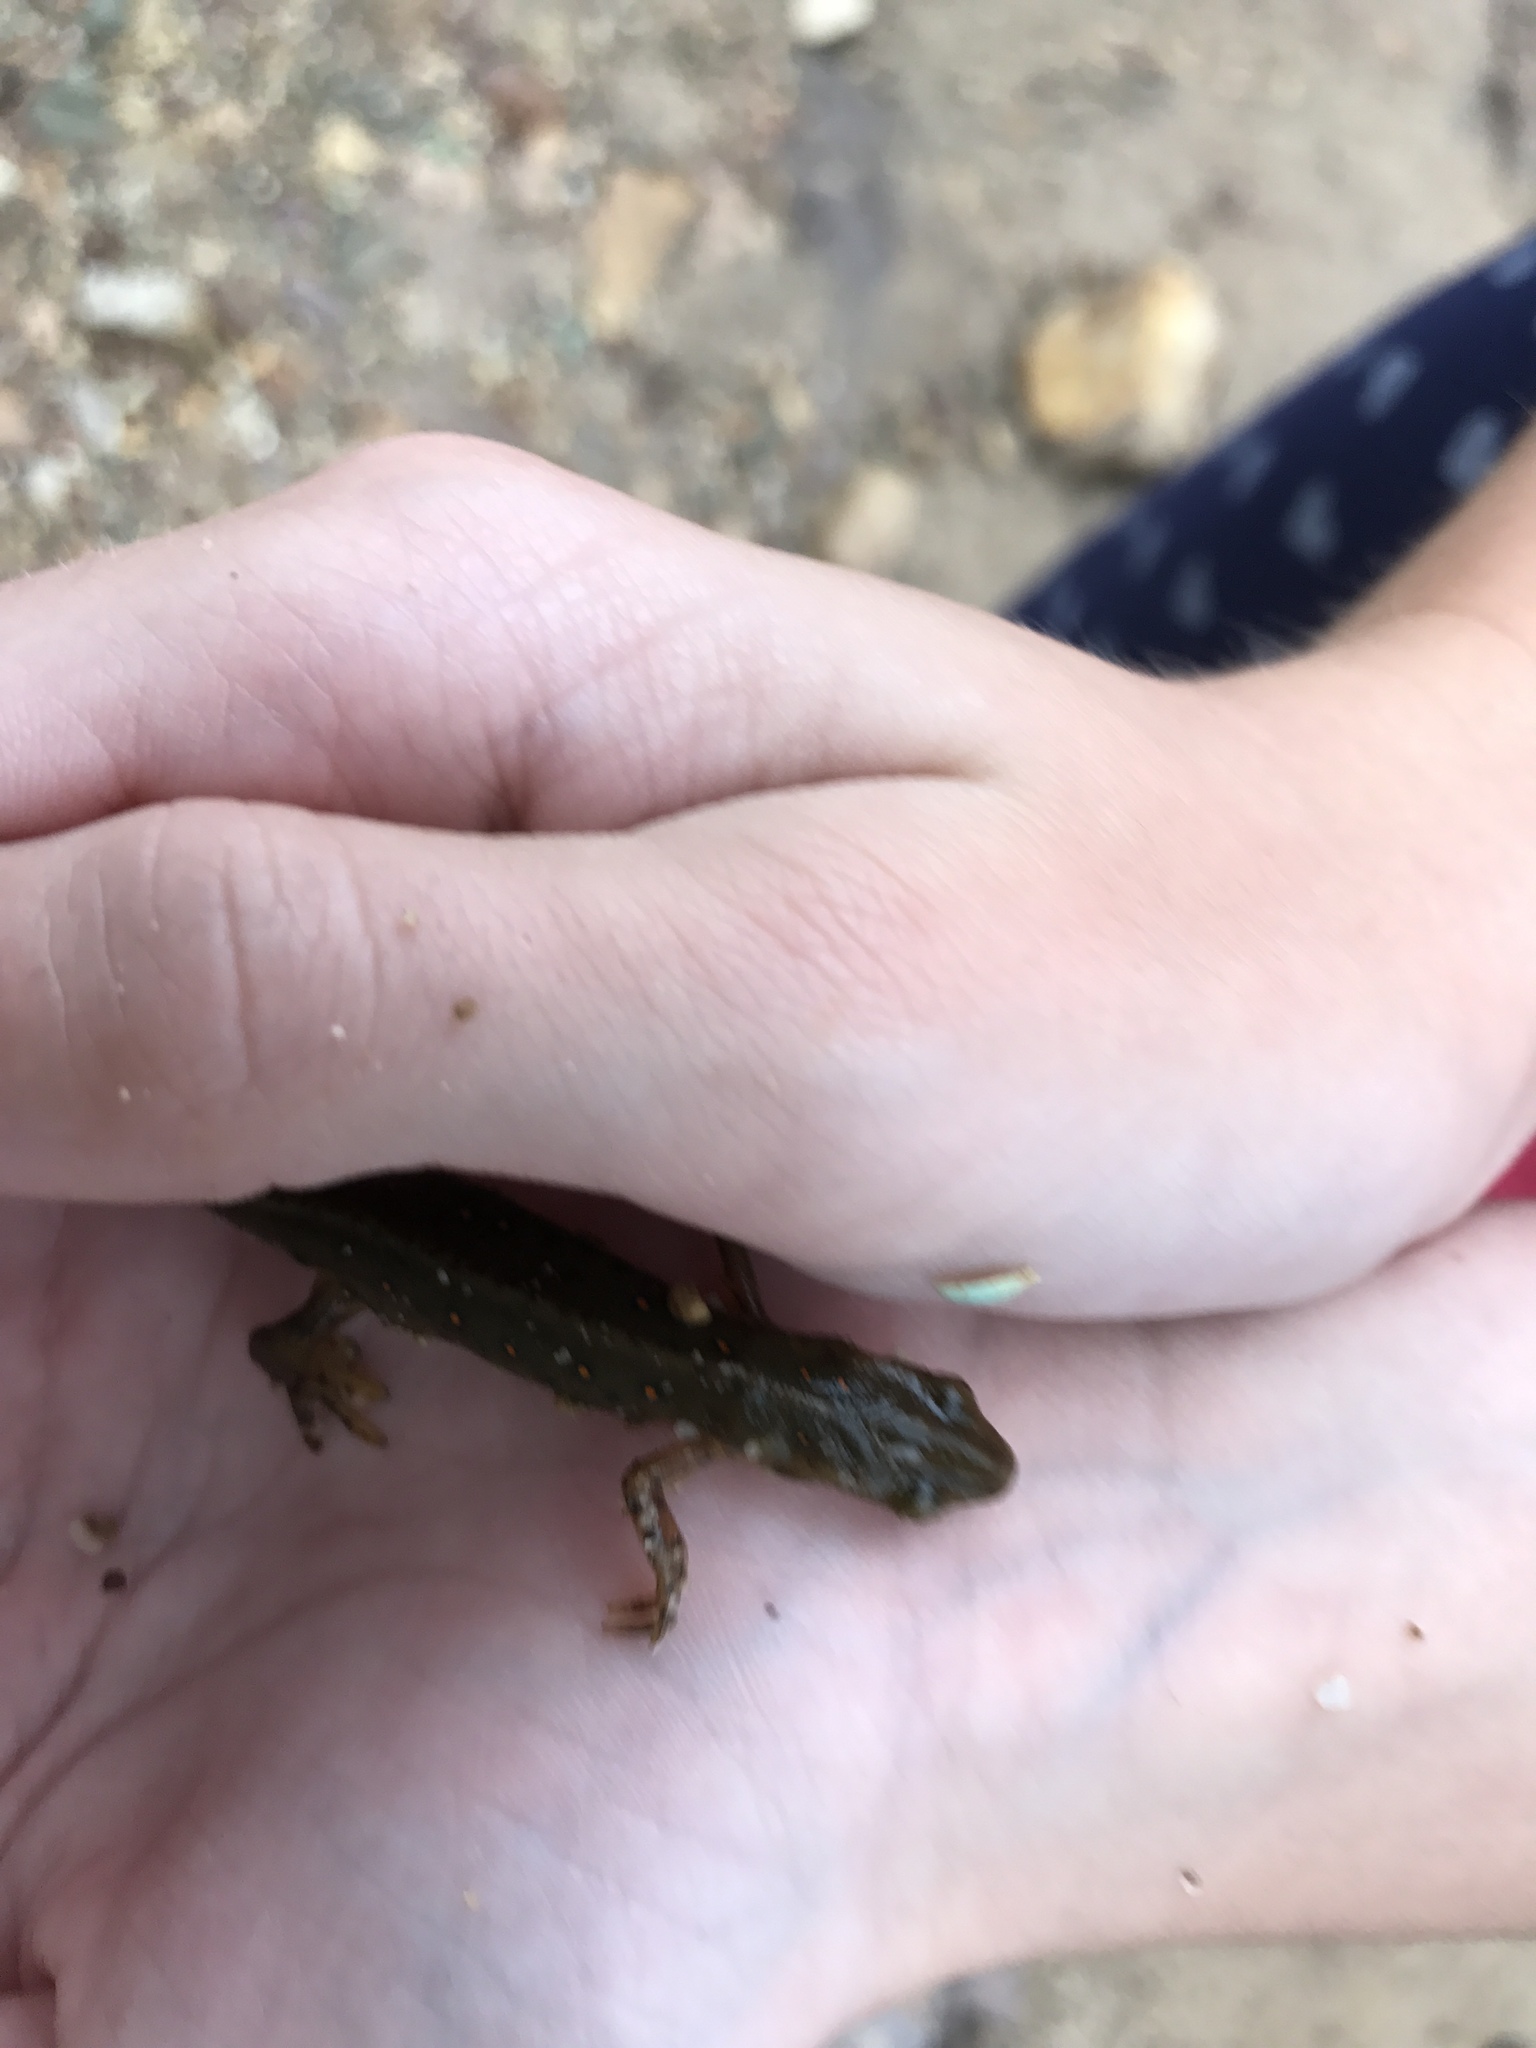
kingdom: Animalia
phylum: Chordata
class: Amphibia
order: Caudata
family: Salamandridae
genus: Notophthalmus
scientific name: Notophthalmus viridescens
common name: Eastern newt
